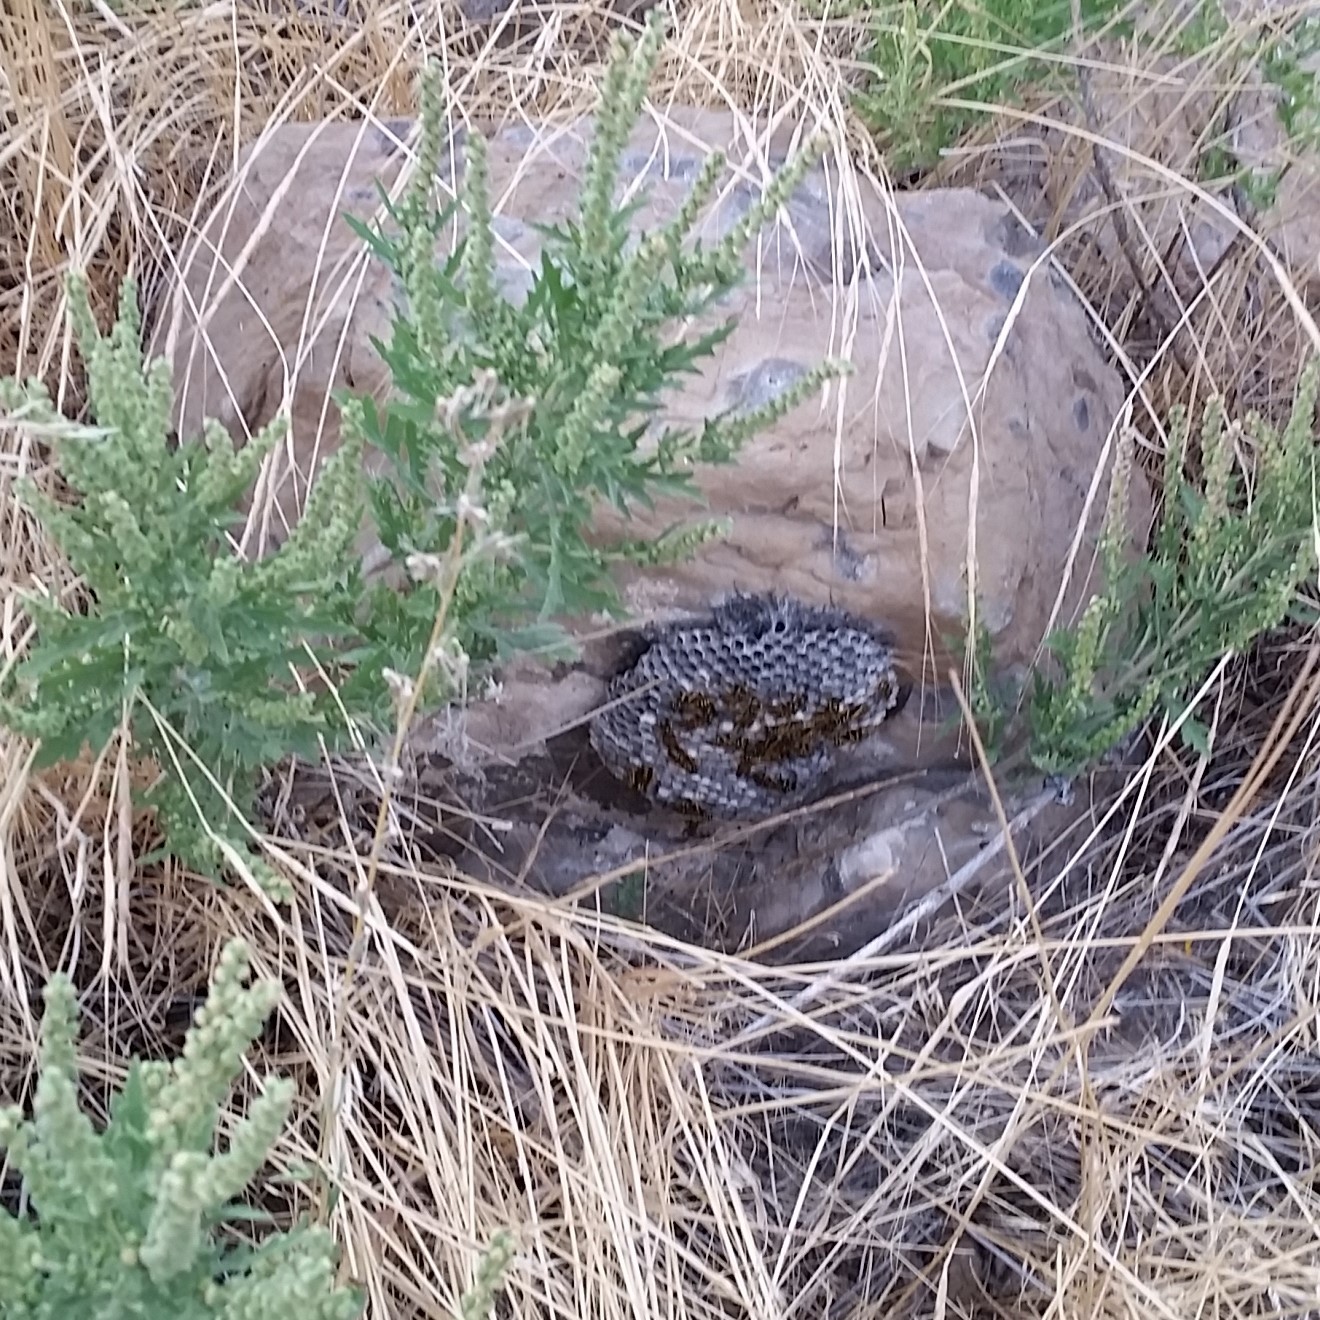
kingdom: Animalia
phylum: Arthropoda
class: Insecta
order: Hymenoptera
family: Eumenidae
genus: Polistes
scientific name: Polistes
